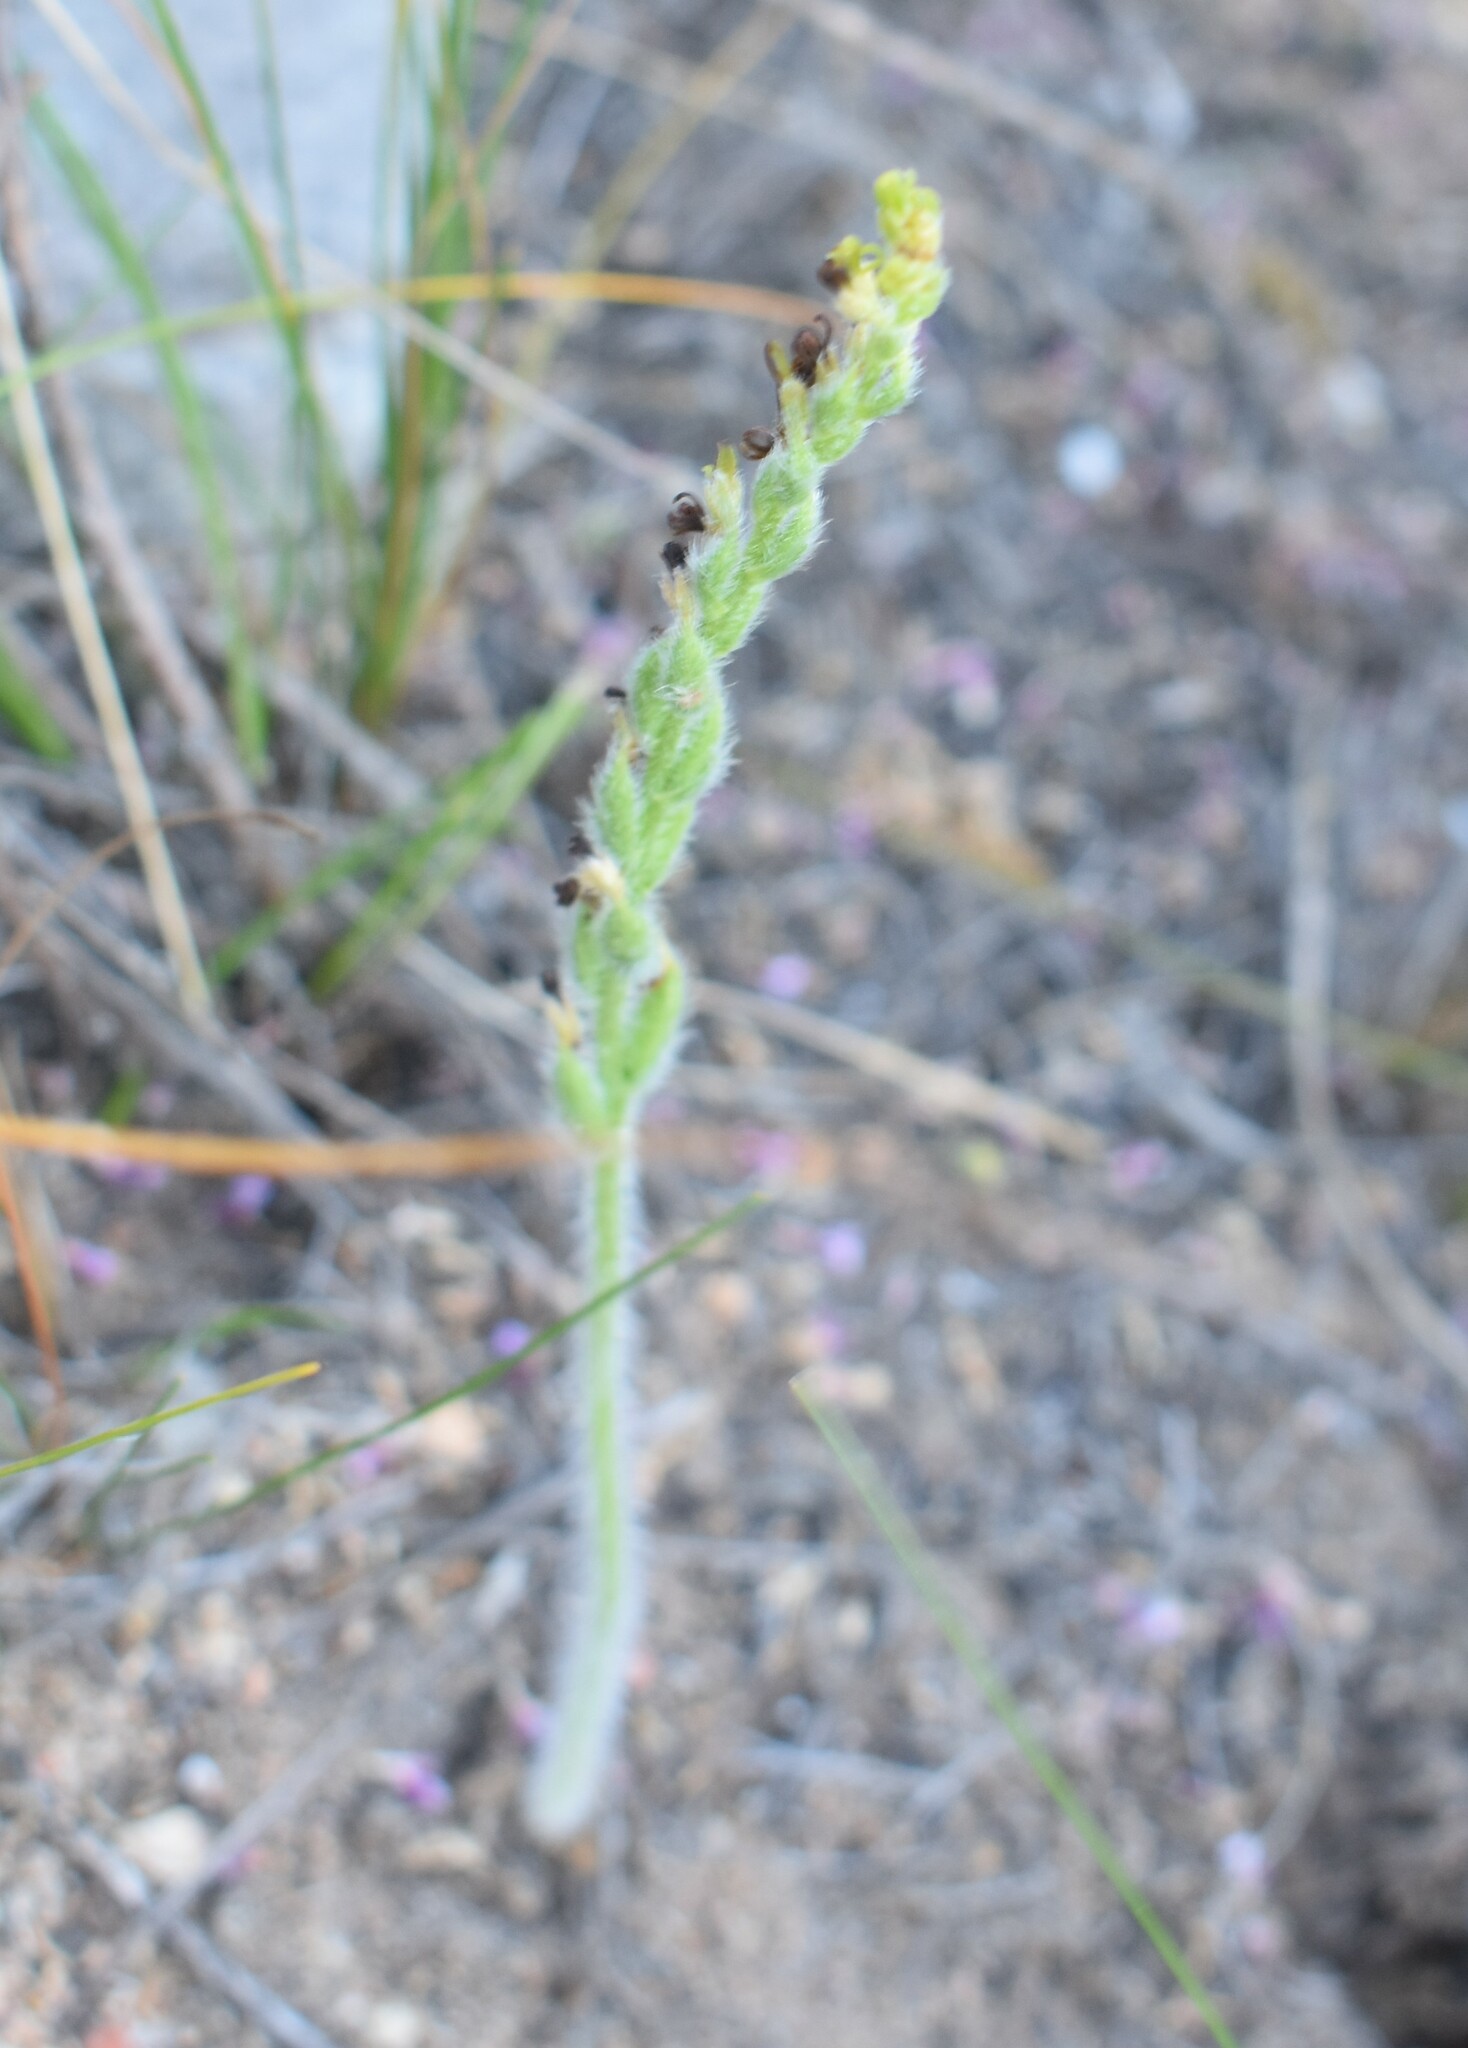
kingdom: Plantae
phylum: Tracheophyta
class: Liliopsida
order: Asparagales
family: Orchidaceae
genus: Holothrix
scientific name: Holothrix cernua
